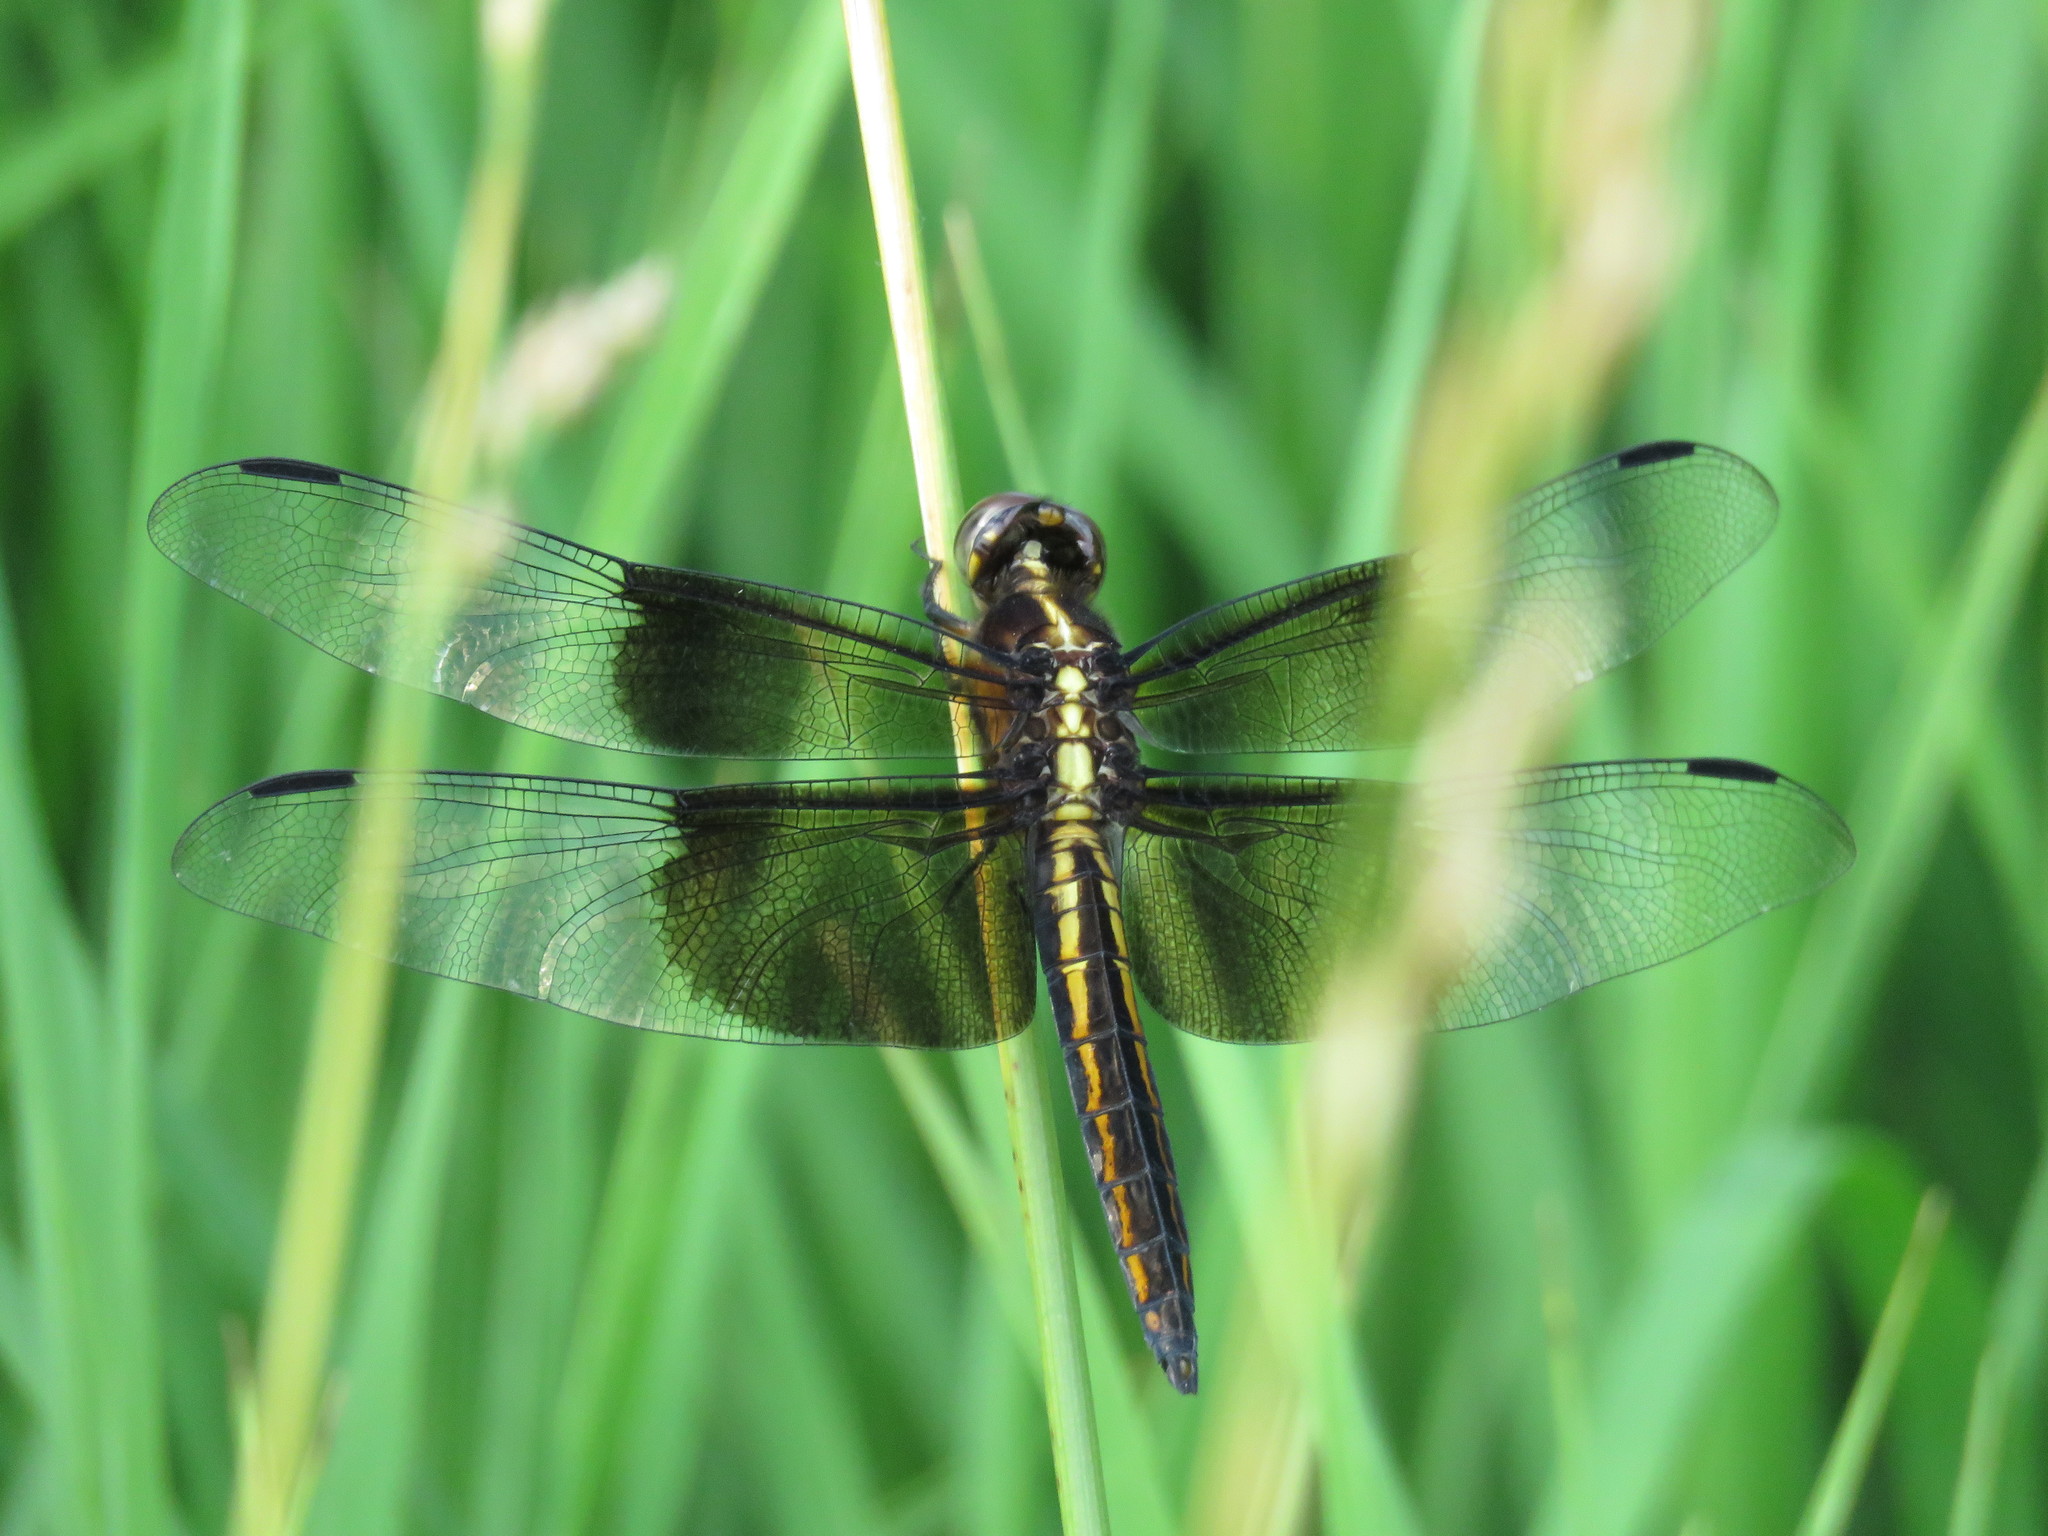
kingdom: Animalia
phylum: Arthropoda
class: Insecta
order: Odonata
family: Libellulidae
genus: Libellula
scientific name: Libellula luctuosa
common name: Widow skimmer
